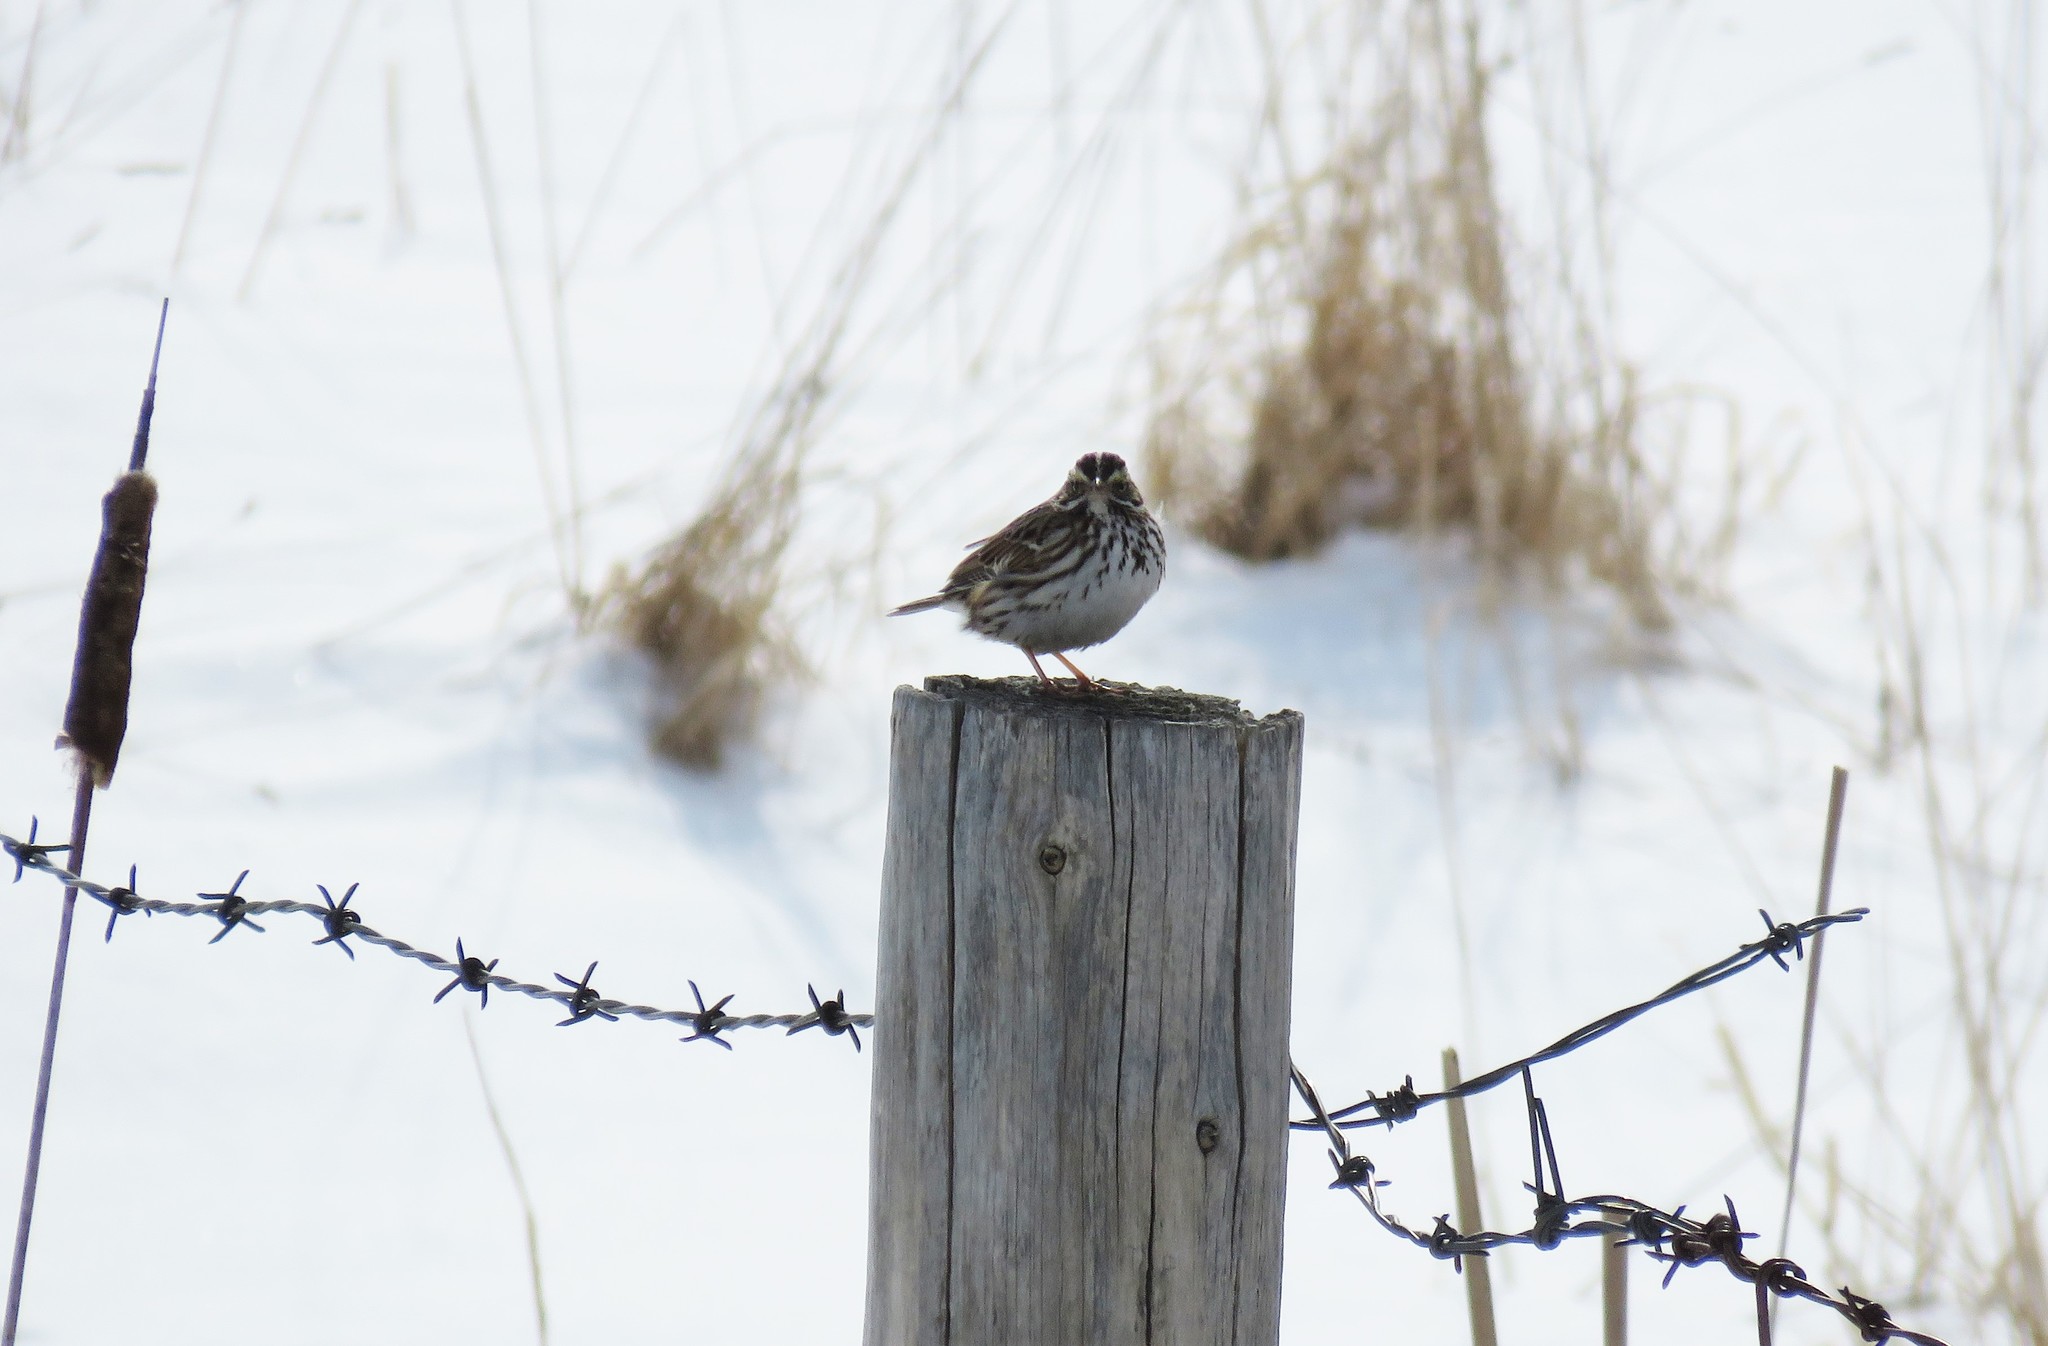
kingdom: Animalia
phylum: Chordata
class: Aves
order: Passeriformes
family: Passerellidae
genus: Passerculus
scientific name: Passerculus sandwichensis
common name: Savannah sparrow
